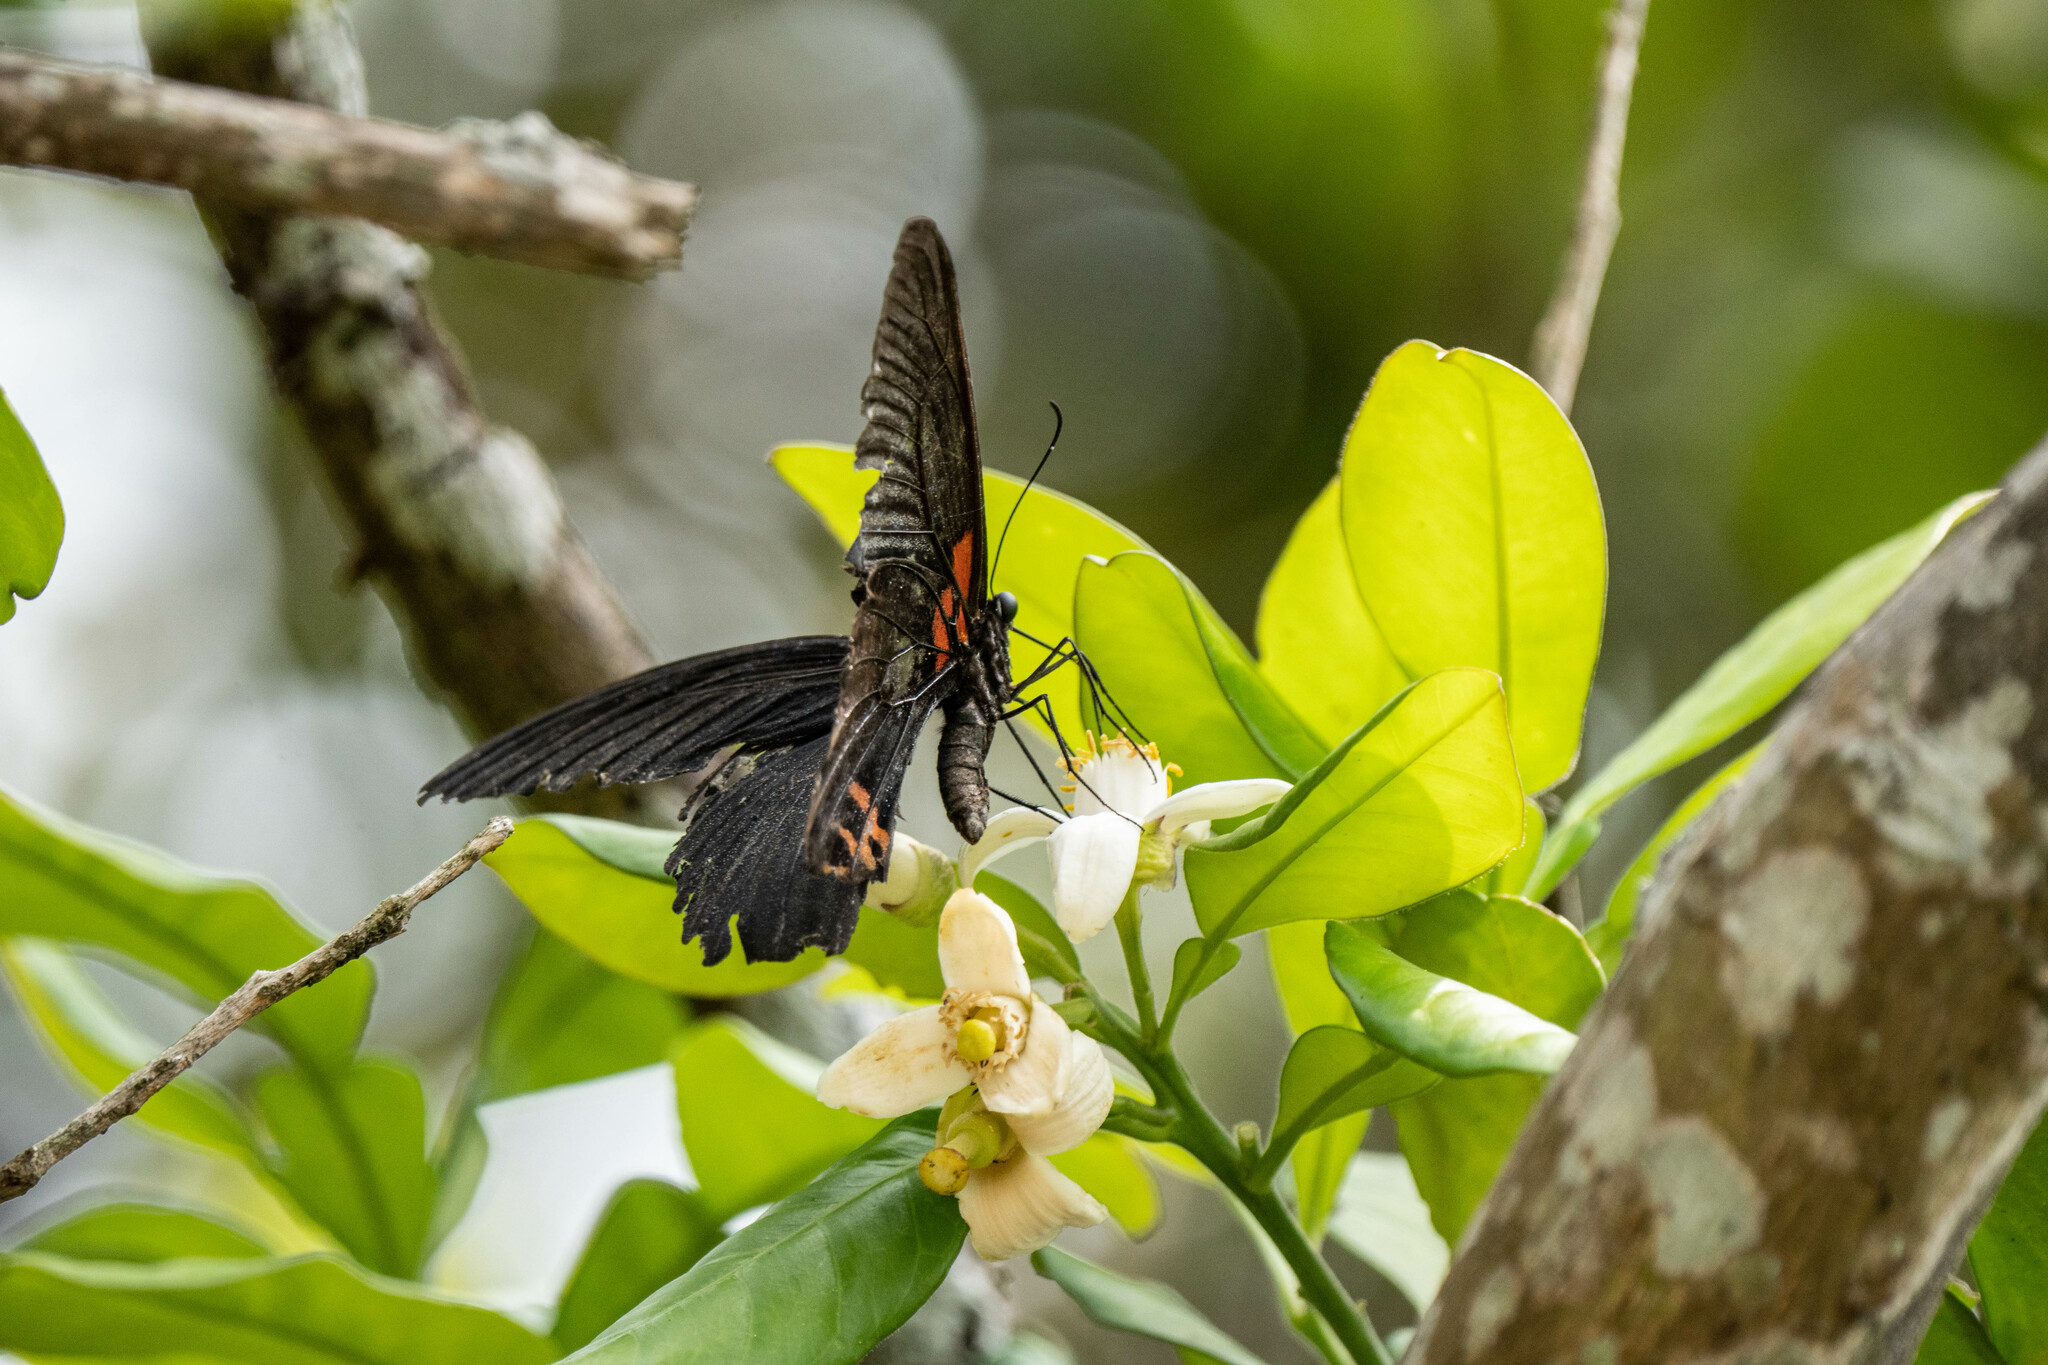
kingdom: Animalia
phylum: Arthropoda
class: Insecta
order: Lepidoptera
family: Papilionidae
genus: Papilio
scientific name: Papilio memnon
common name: Great mormon
